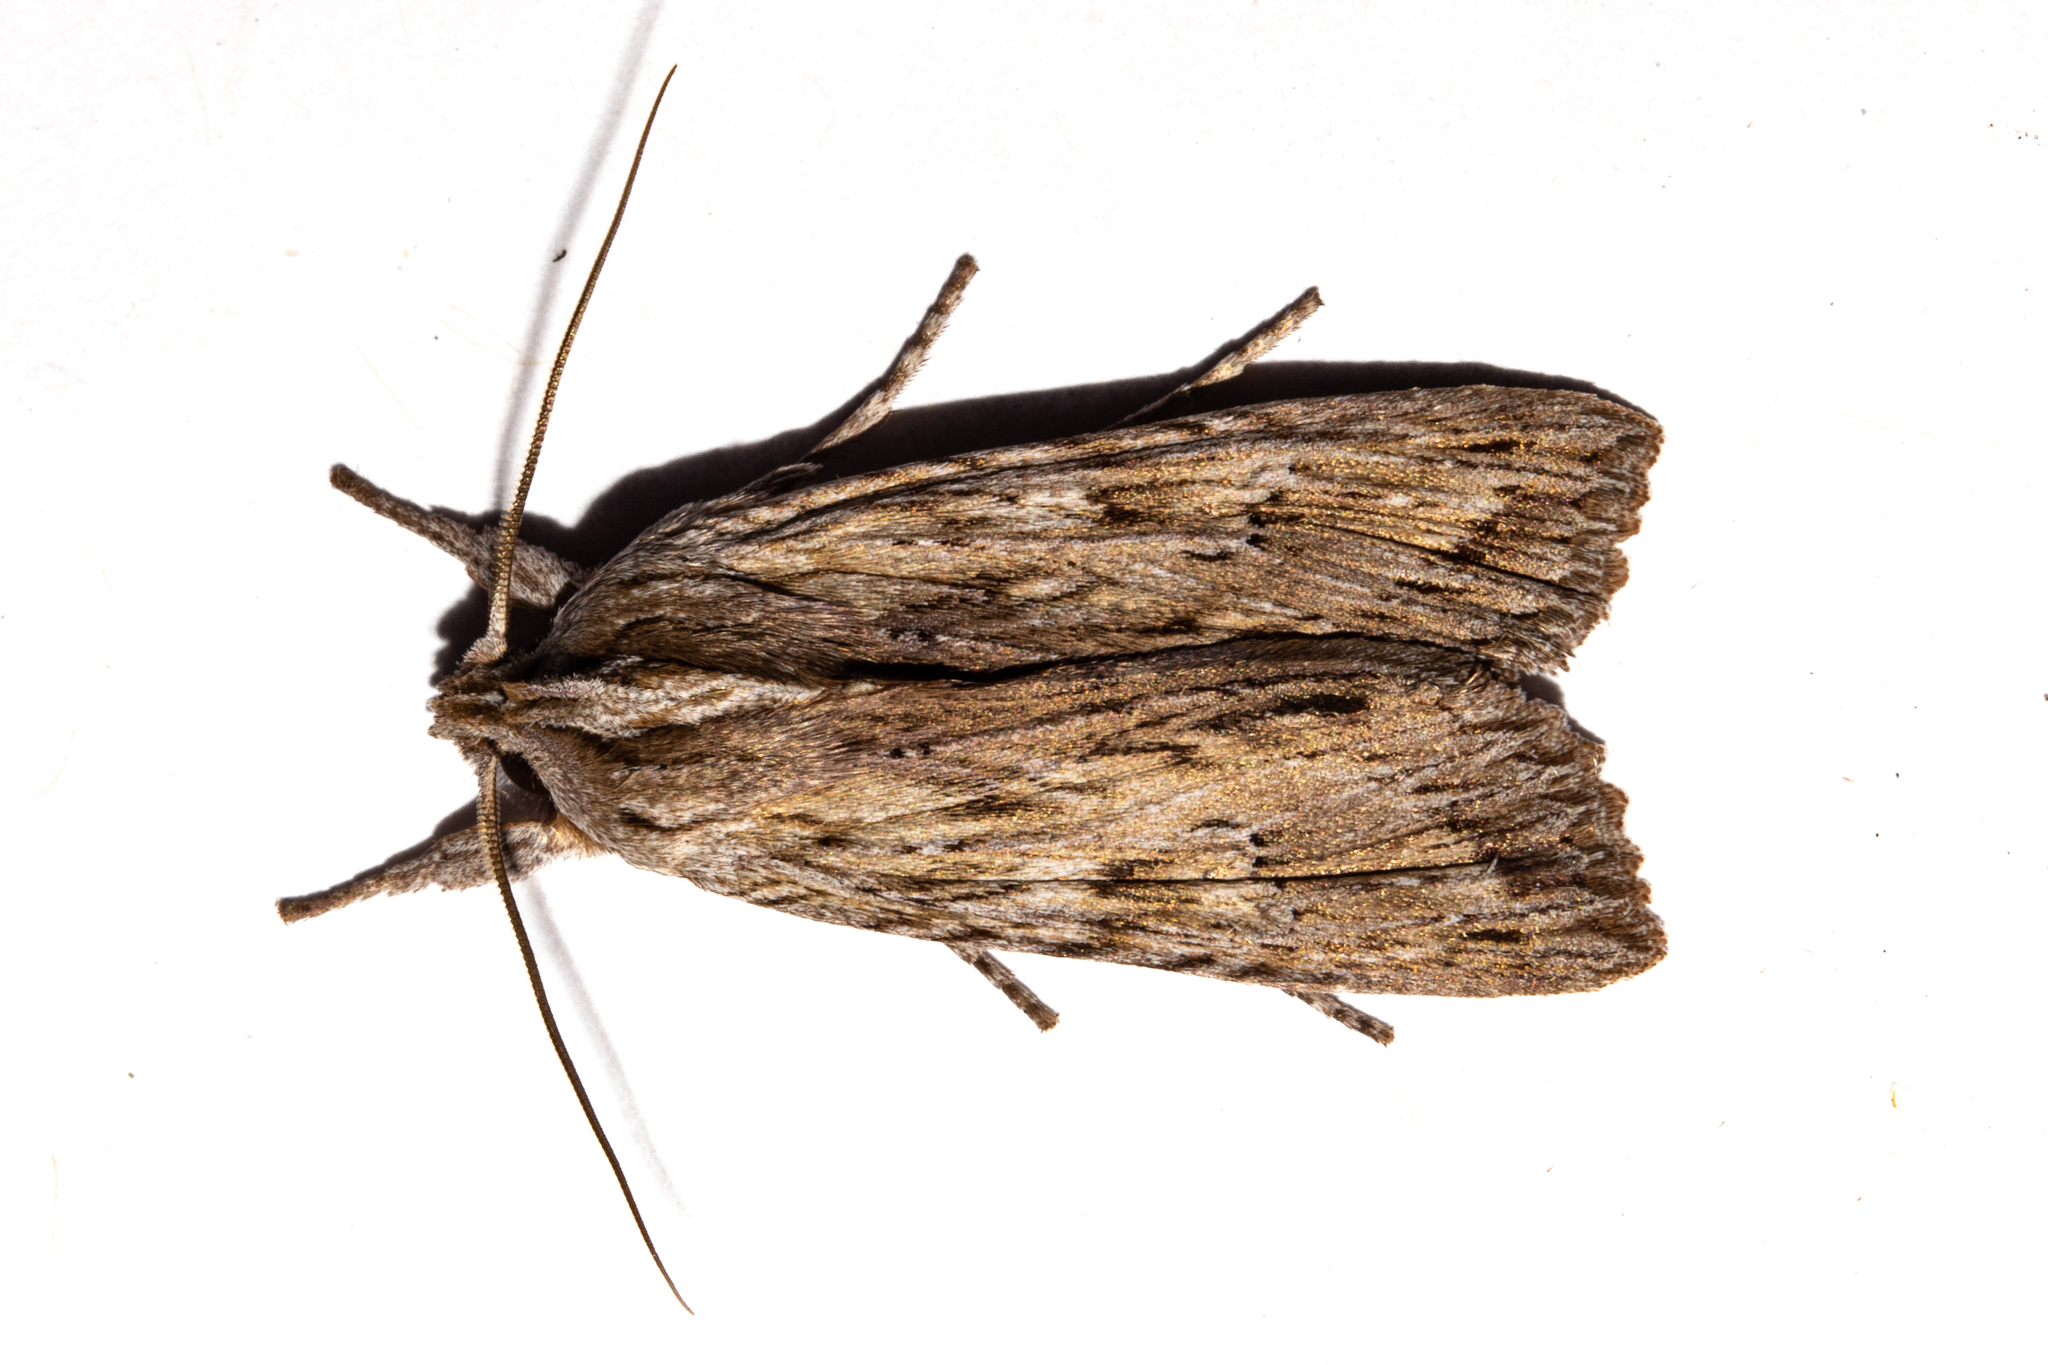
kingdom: Animalia
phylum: Arthropoda
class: Insecta
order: Lepidoptera
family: Noctuidae
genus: Physetica
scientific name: Physetica prionistis
